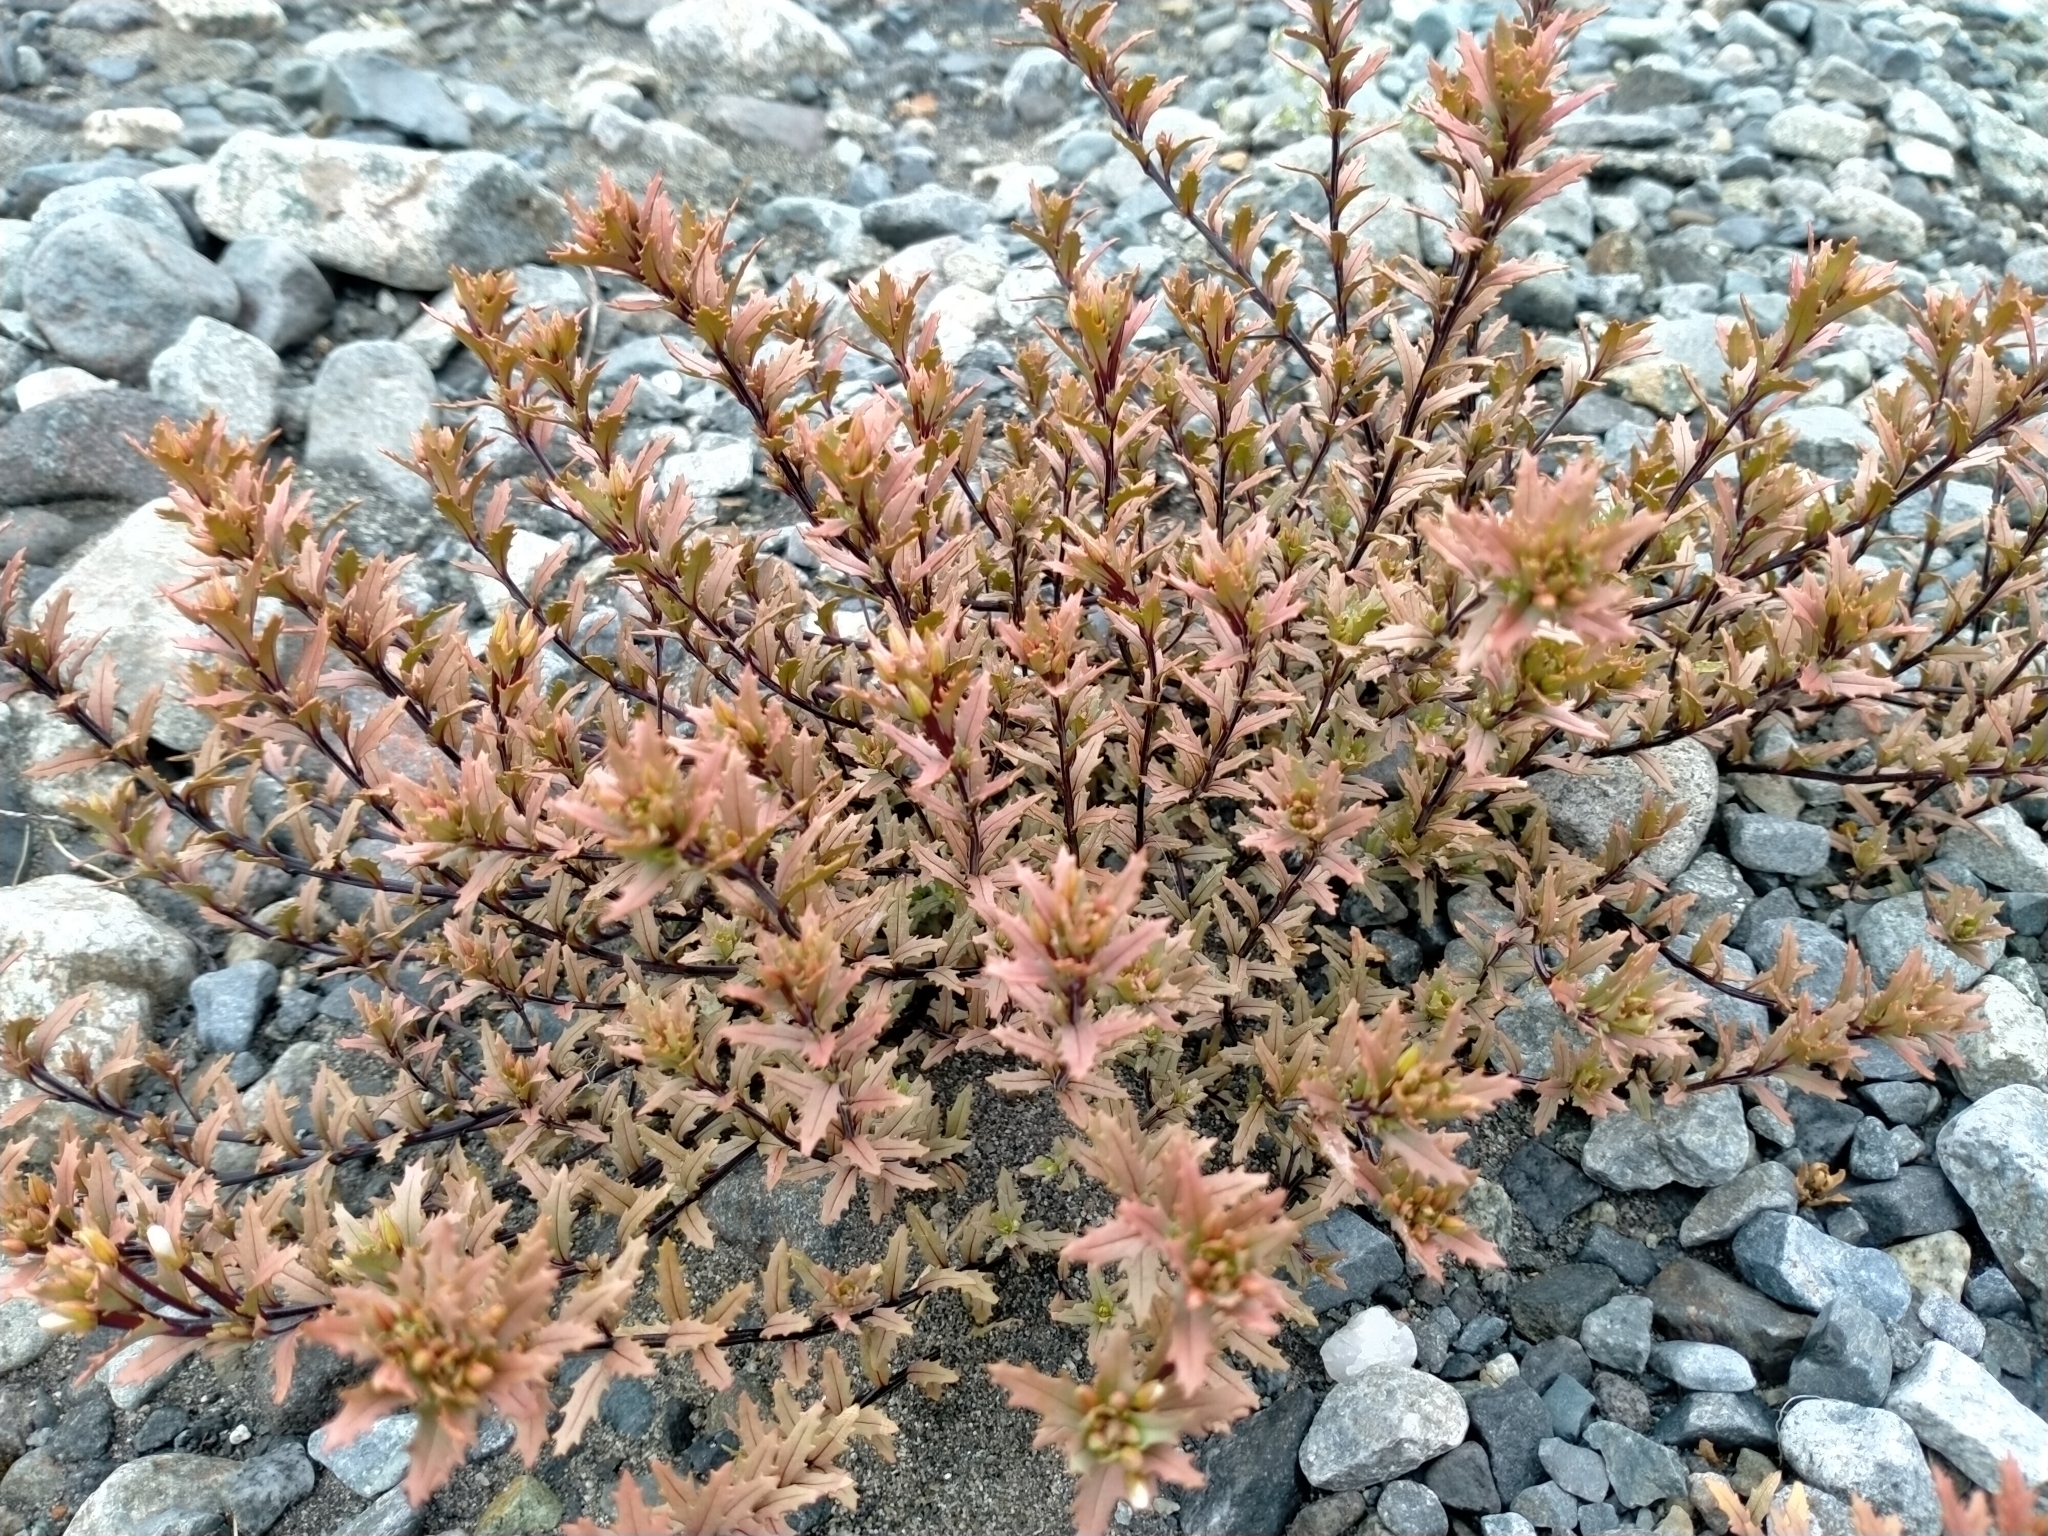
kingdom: Plantae
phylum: Tracheophyta
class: Magnoliopsida
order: Myrtales
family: Onagraceae
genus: Epilobium
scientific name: Epilobium melanocaulon
